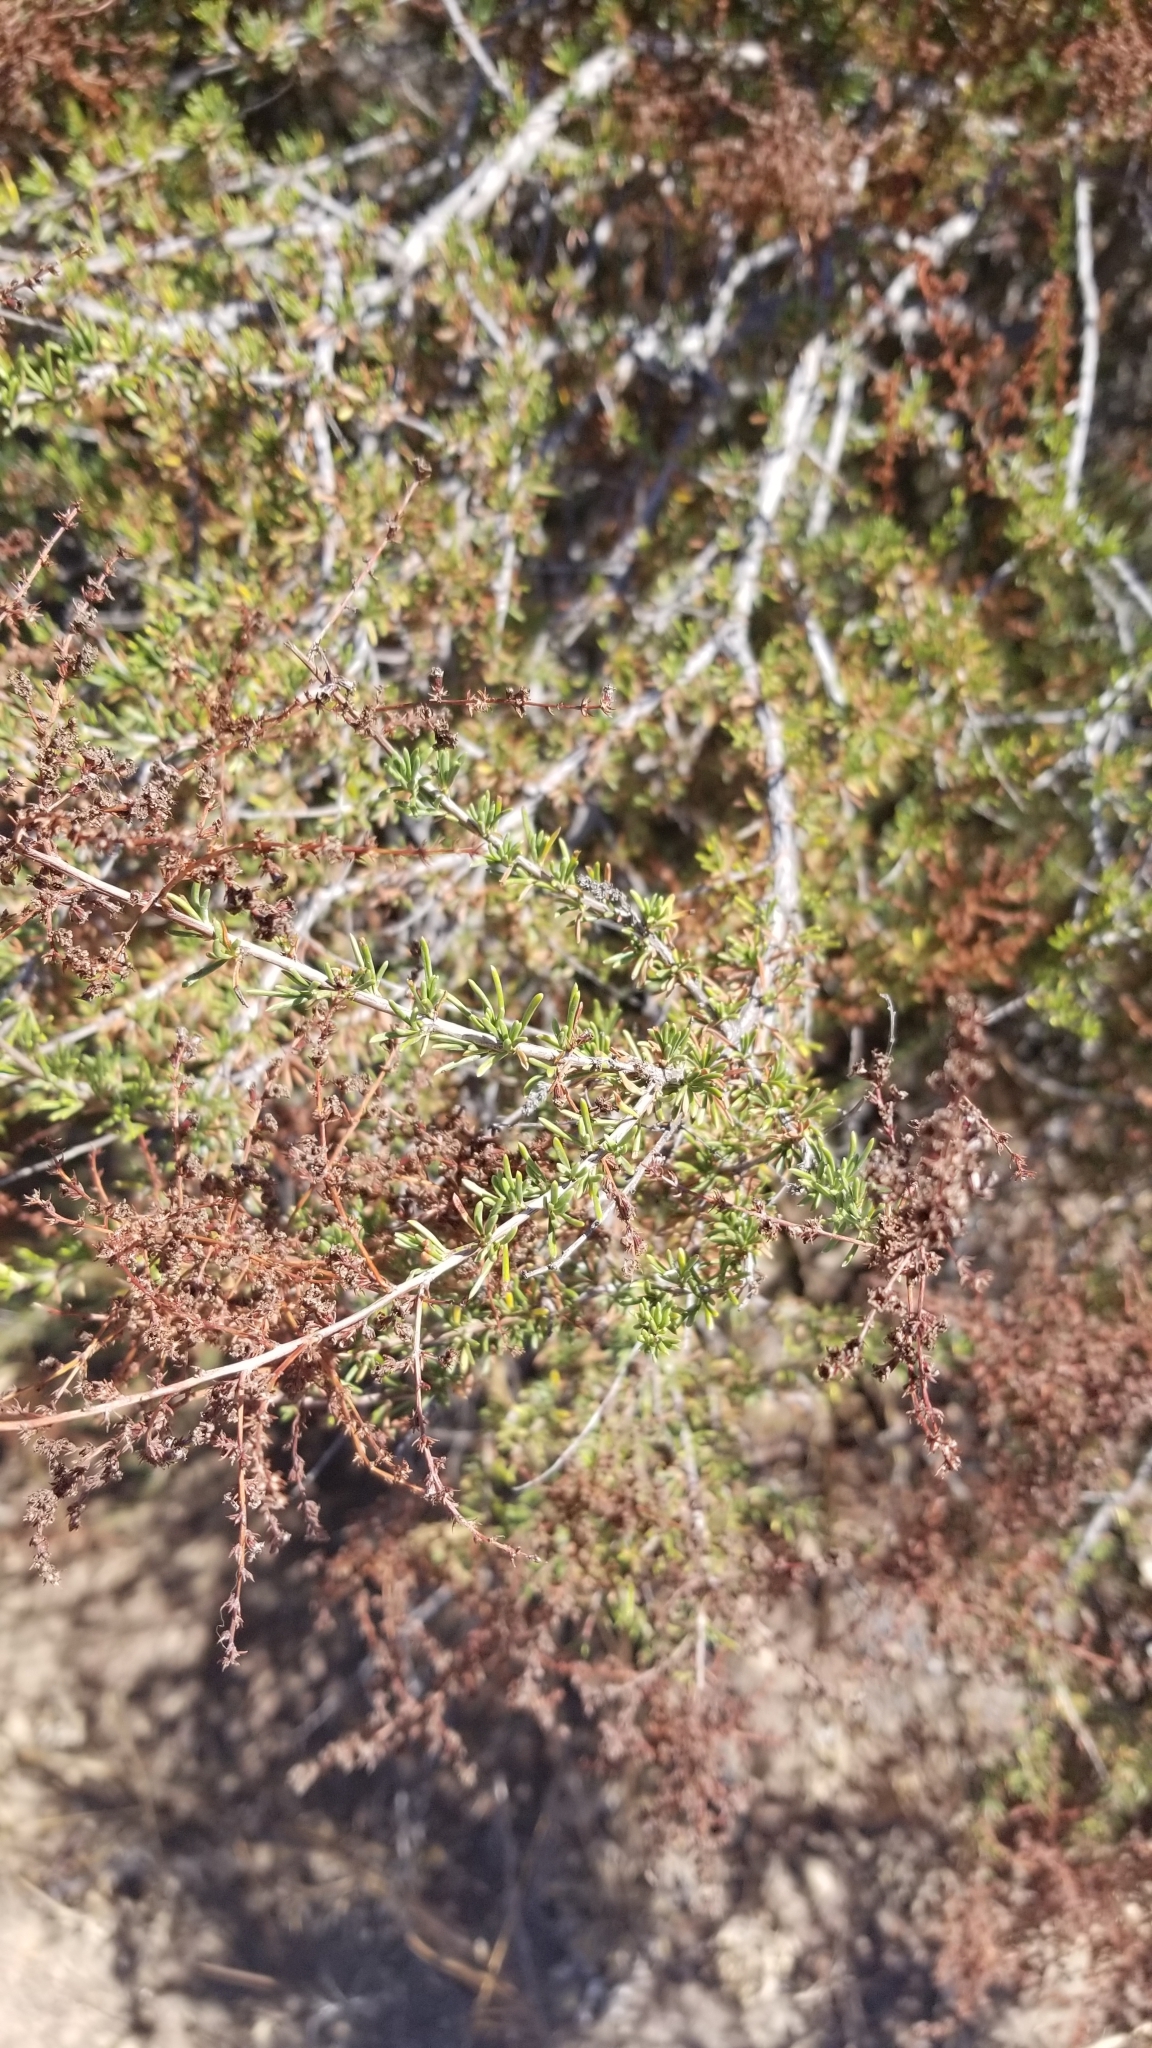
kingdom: Plantae
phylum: Tracheophyta
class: Magnoliopsida
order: Rosales
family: Rosaceae
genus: Adenostoma
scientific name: Adenostoma fasciculatum
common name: Chamise
